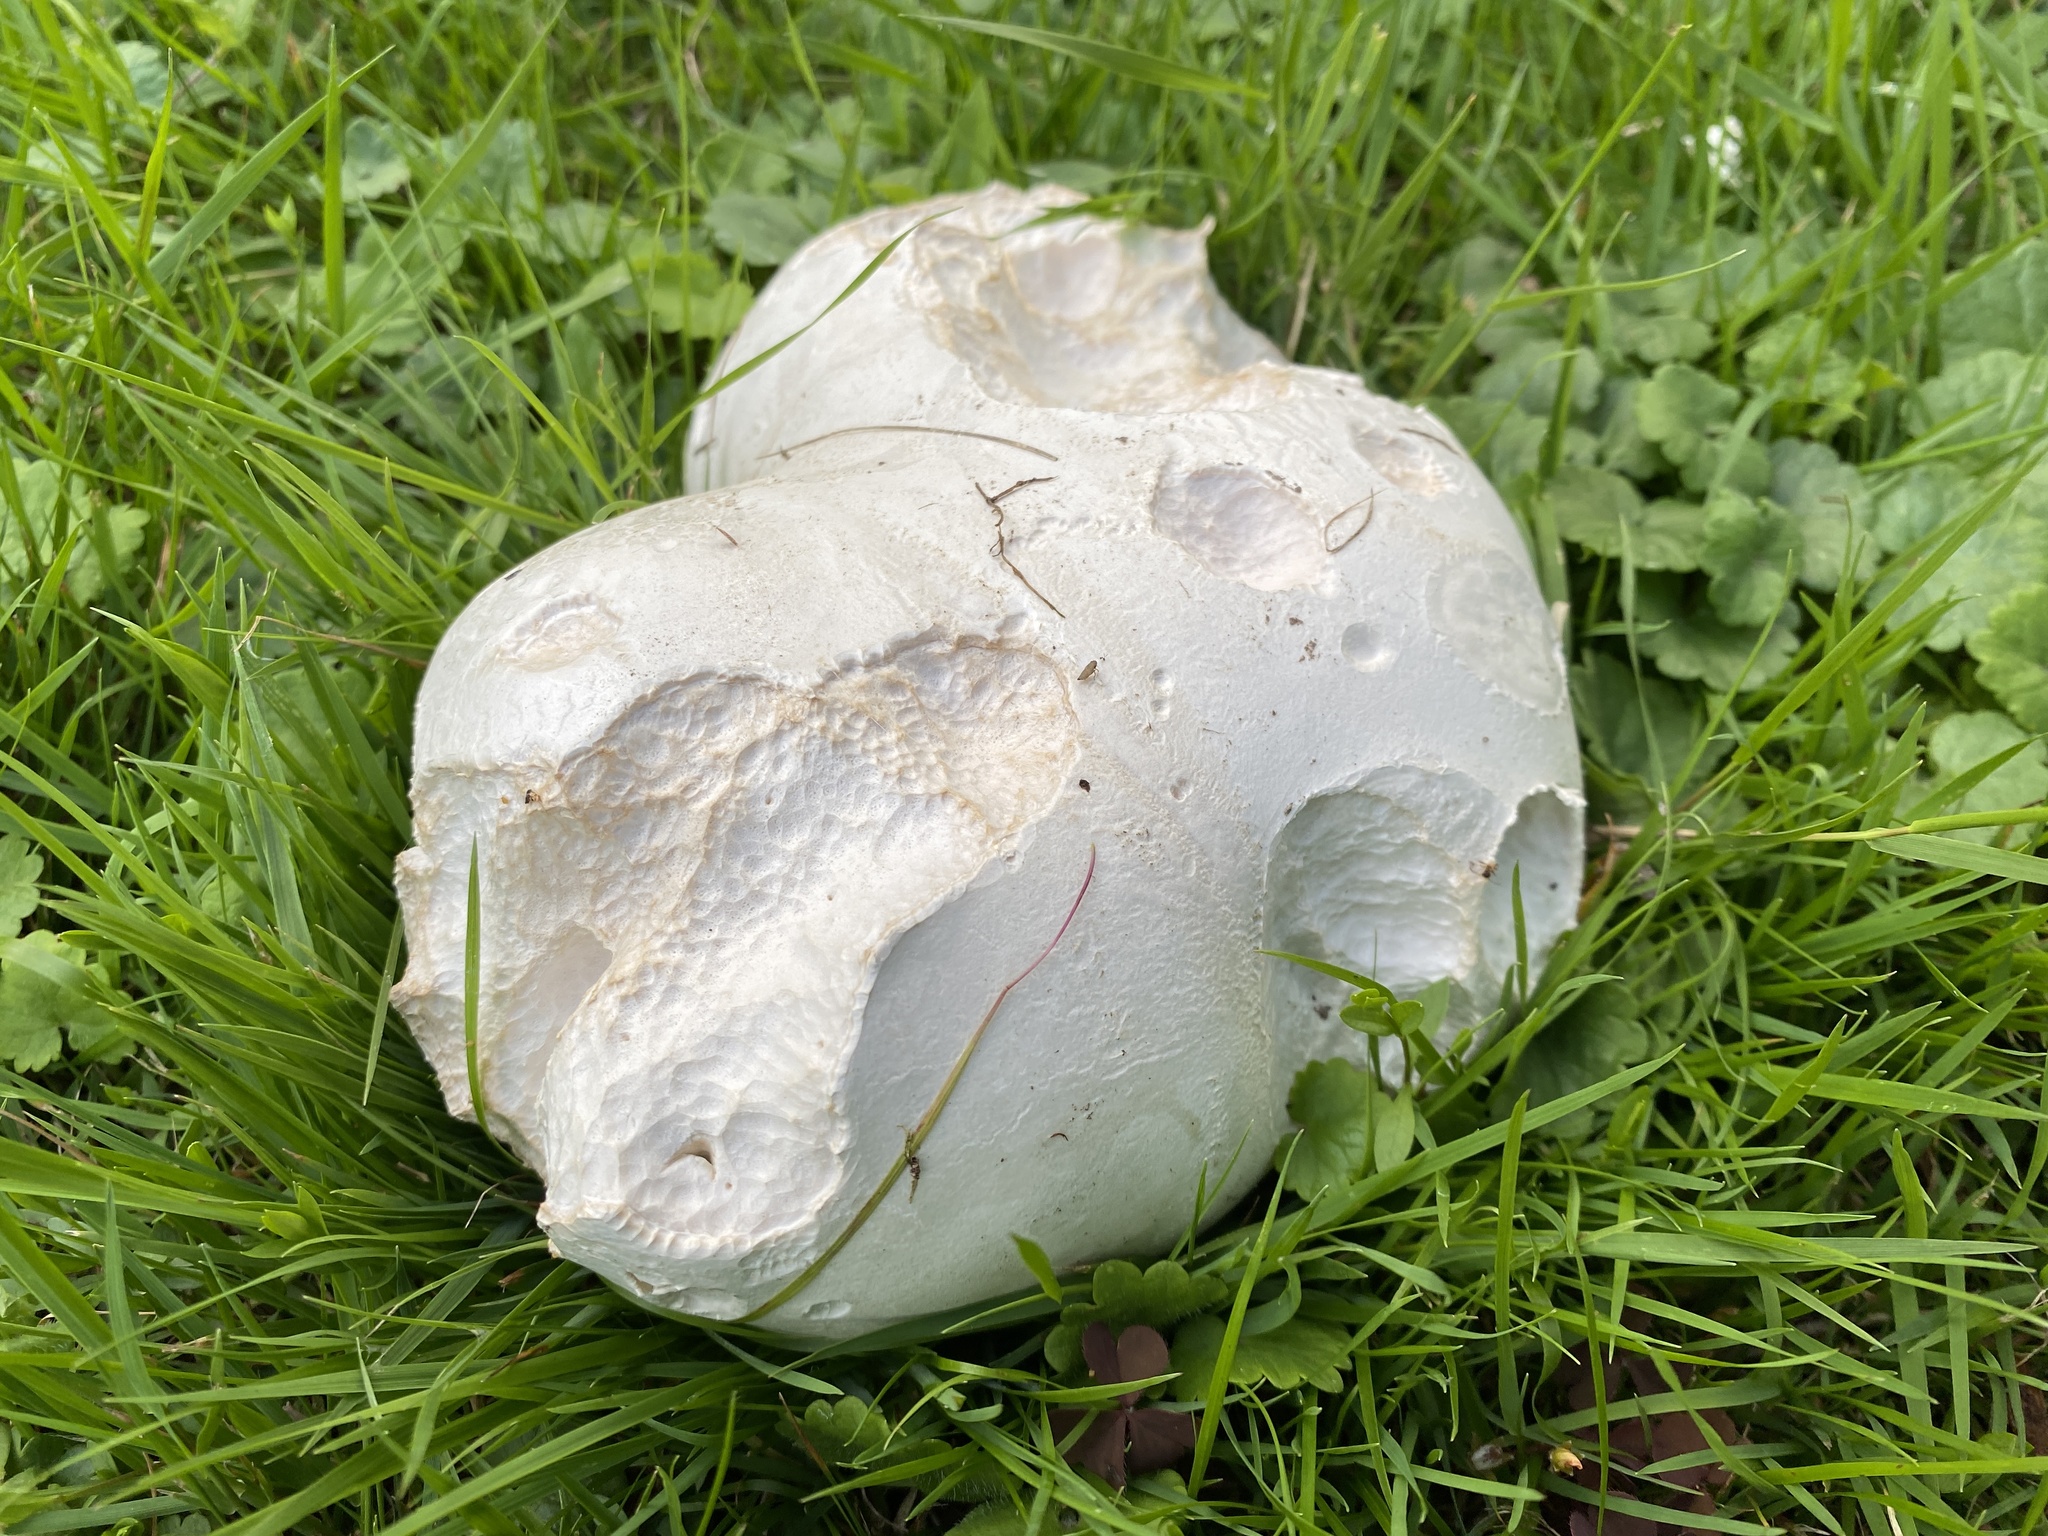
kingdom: Fungi
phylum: Basidiomycota
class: Agaricomycetes
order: Agaricales
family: Lycoperdaceae
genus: Calvatia
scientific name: Calvatia gigantea
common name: Giant puffball
